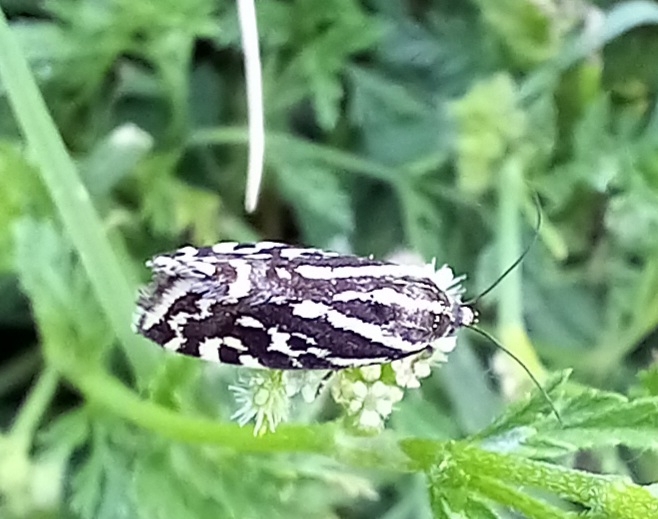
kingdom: Animalia
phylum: Arthropoda
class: Insecta
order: Lepidoptera
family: Noctuidae
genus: Acontia
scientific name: Acontia trabealis
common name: Spotted sulphur
